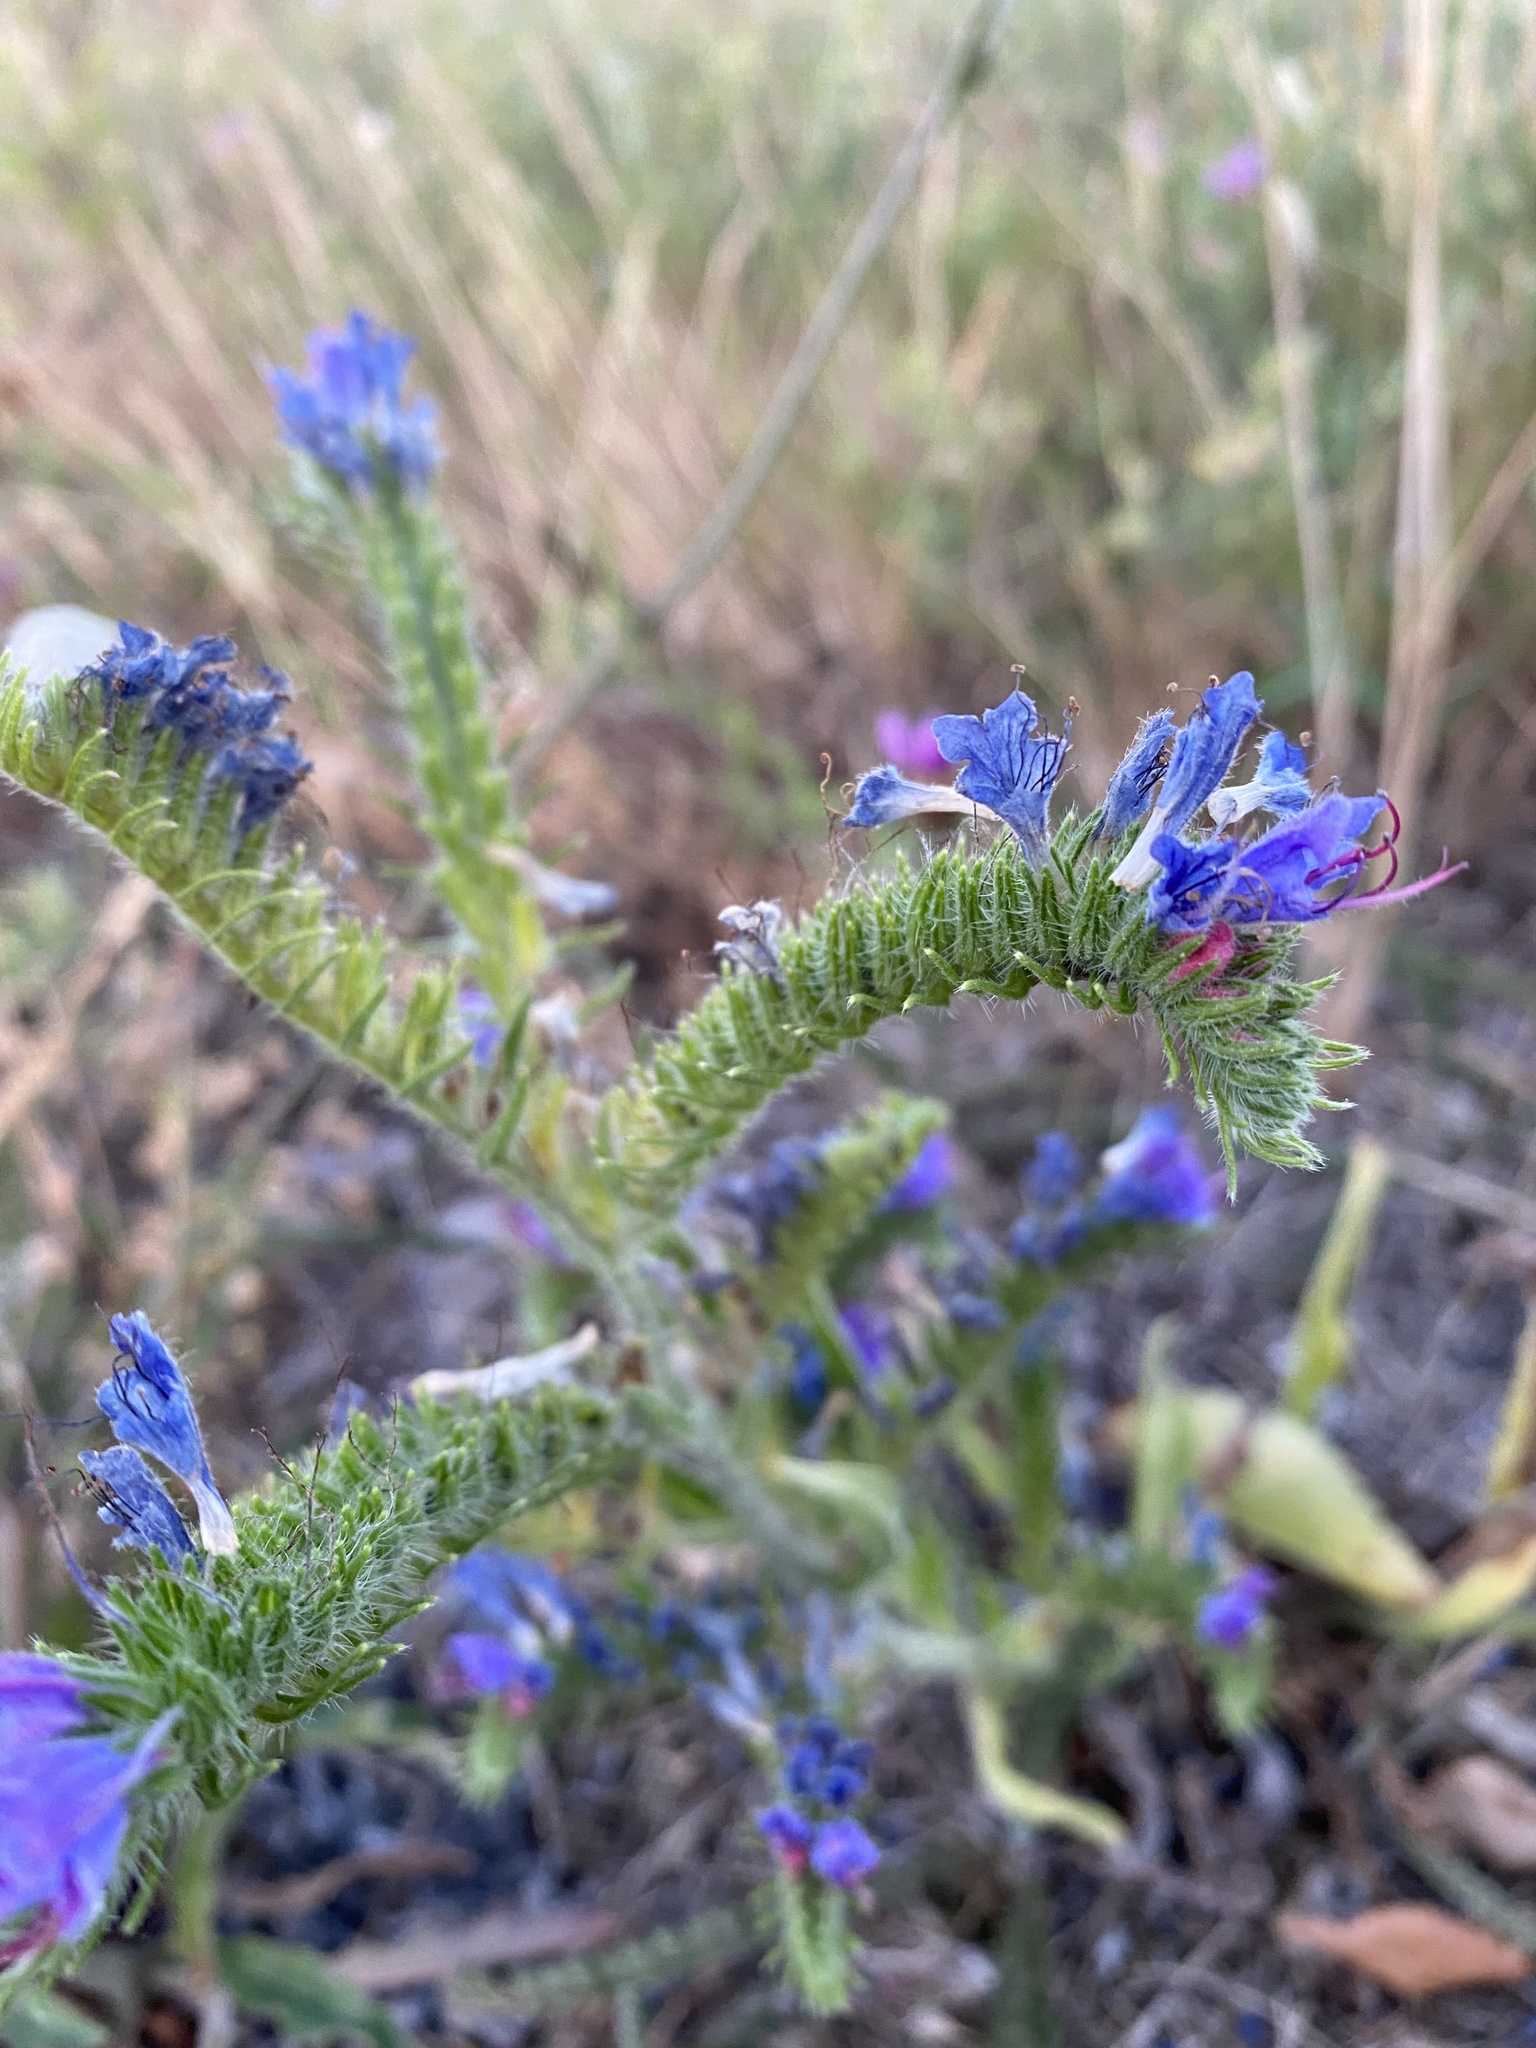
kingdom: Plantae
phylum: Tracheophyta
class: Magnoliopsida
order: Boraginales
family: Boraginaceae
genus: Echium
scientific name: Echium vulgare
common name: Common viper's bugloss
